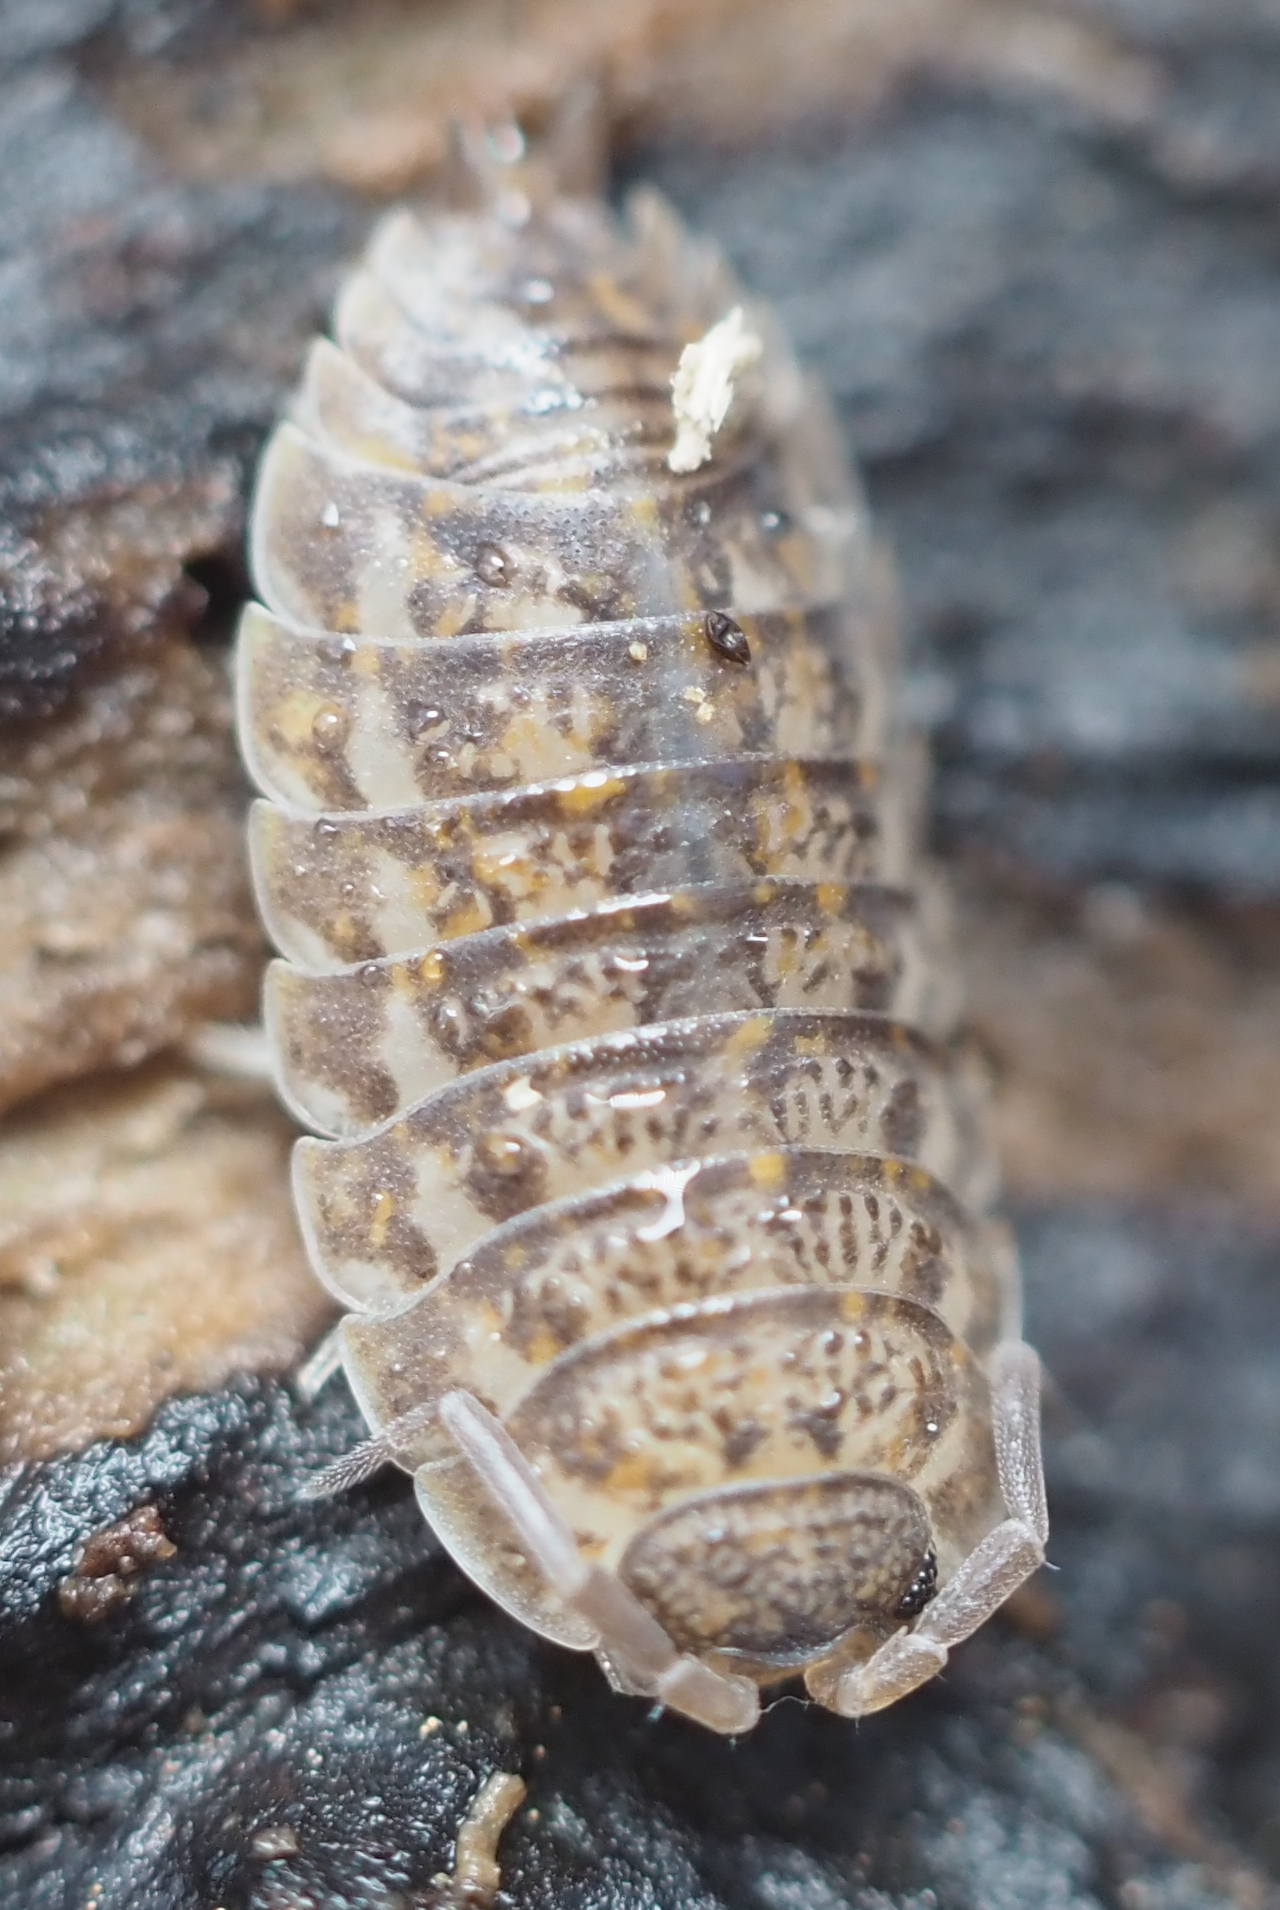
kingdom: Animalia
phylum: Arthropoda
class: Malacostraca
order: Isopoda
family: Trachelipodidae
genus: Trachelipus
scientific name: Trachelipus rathkii
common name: Isopod
